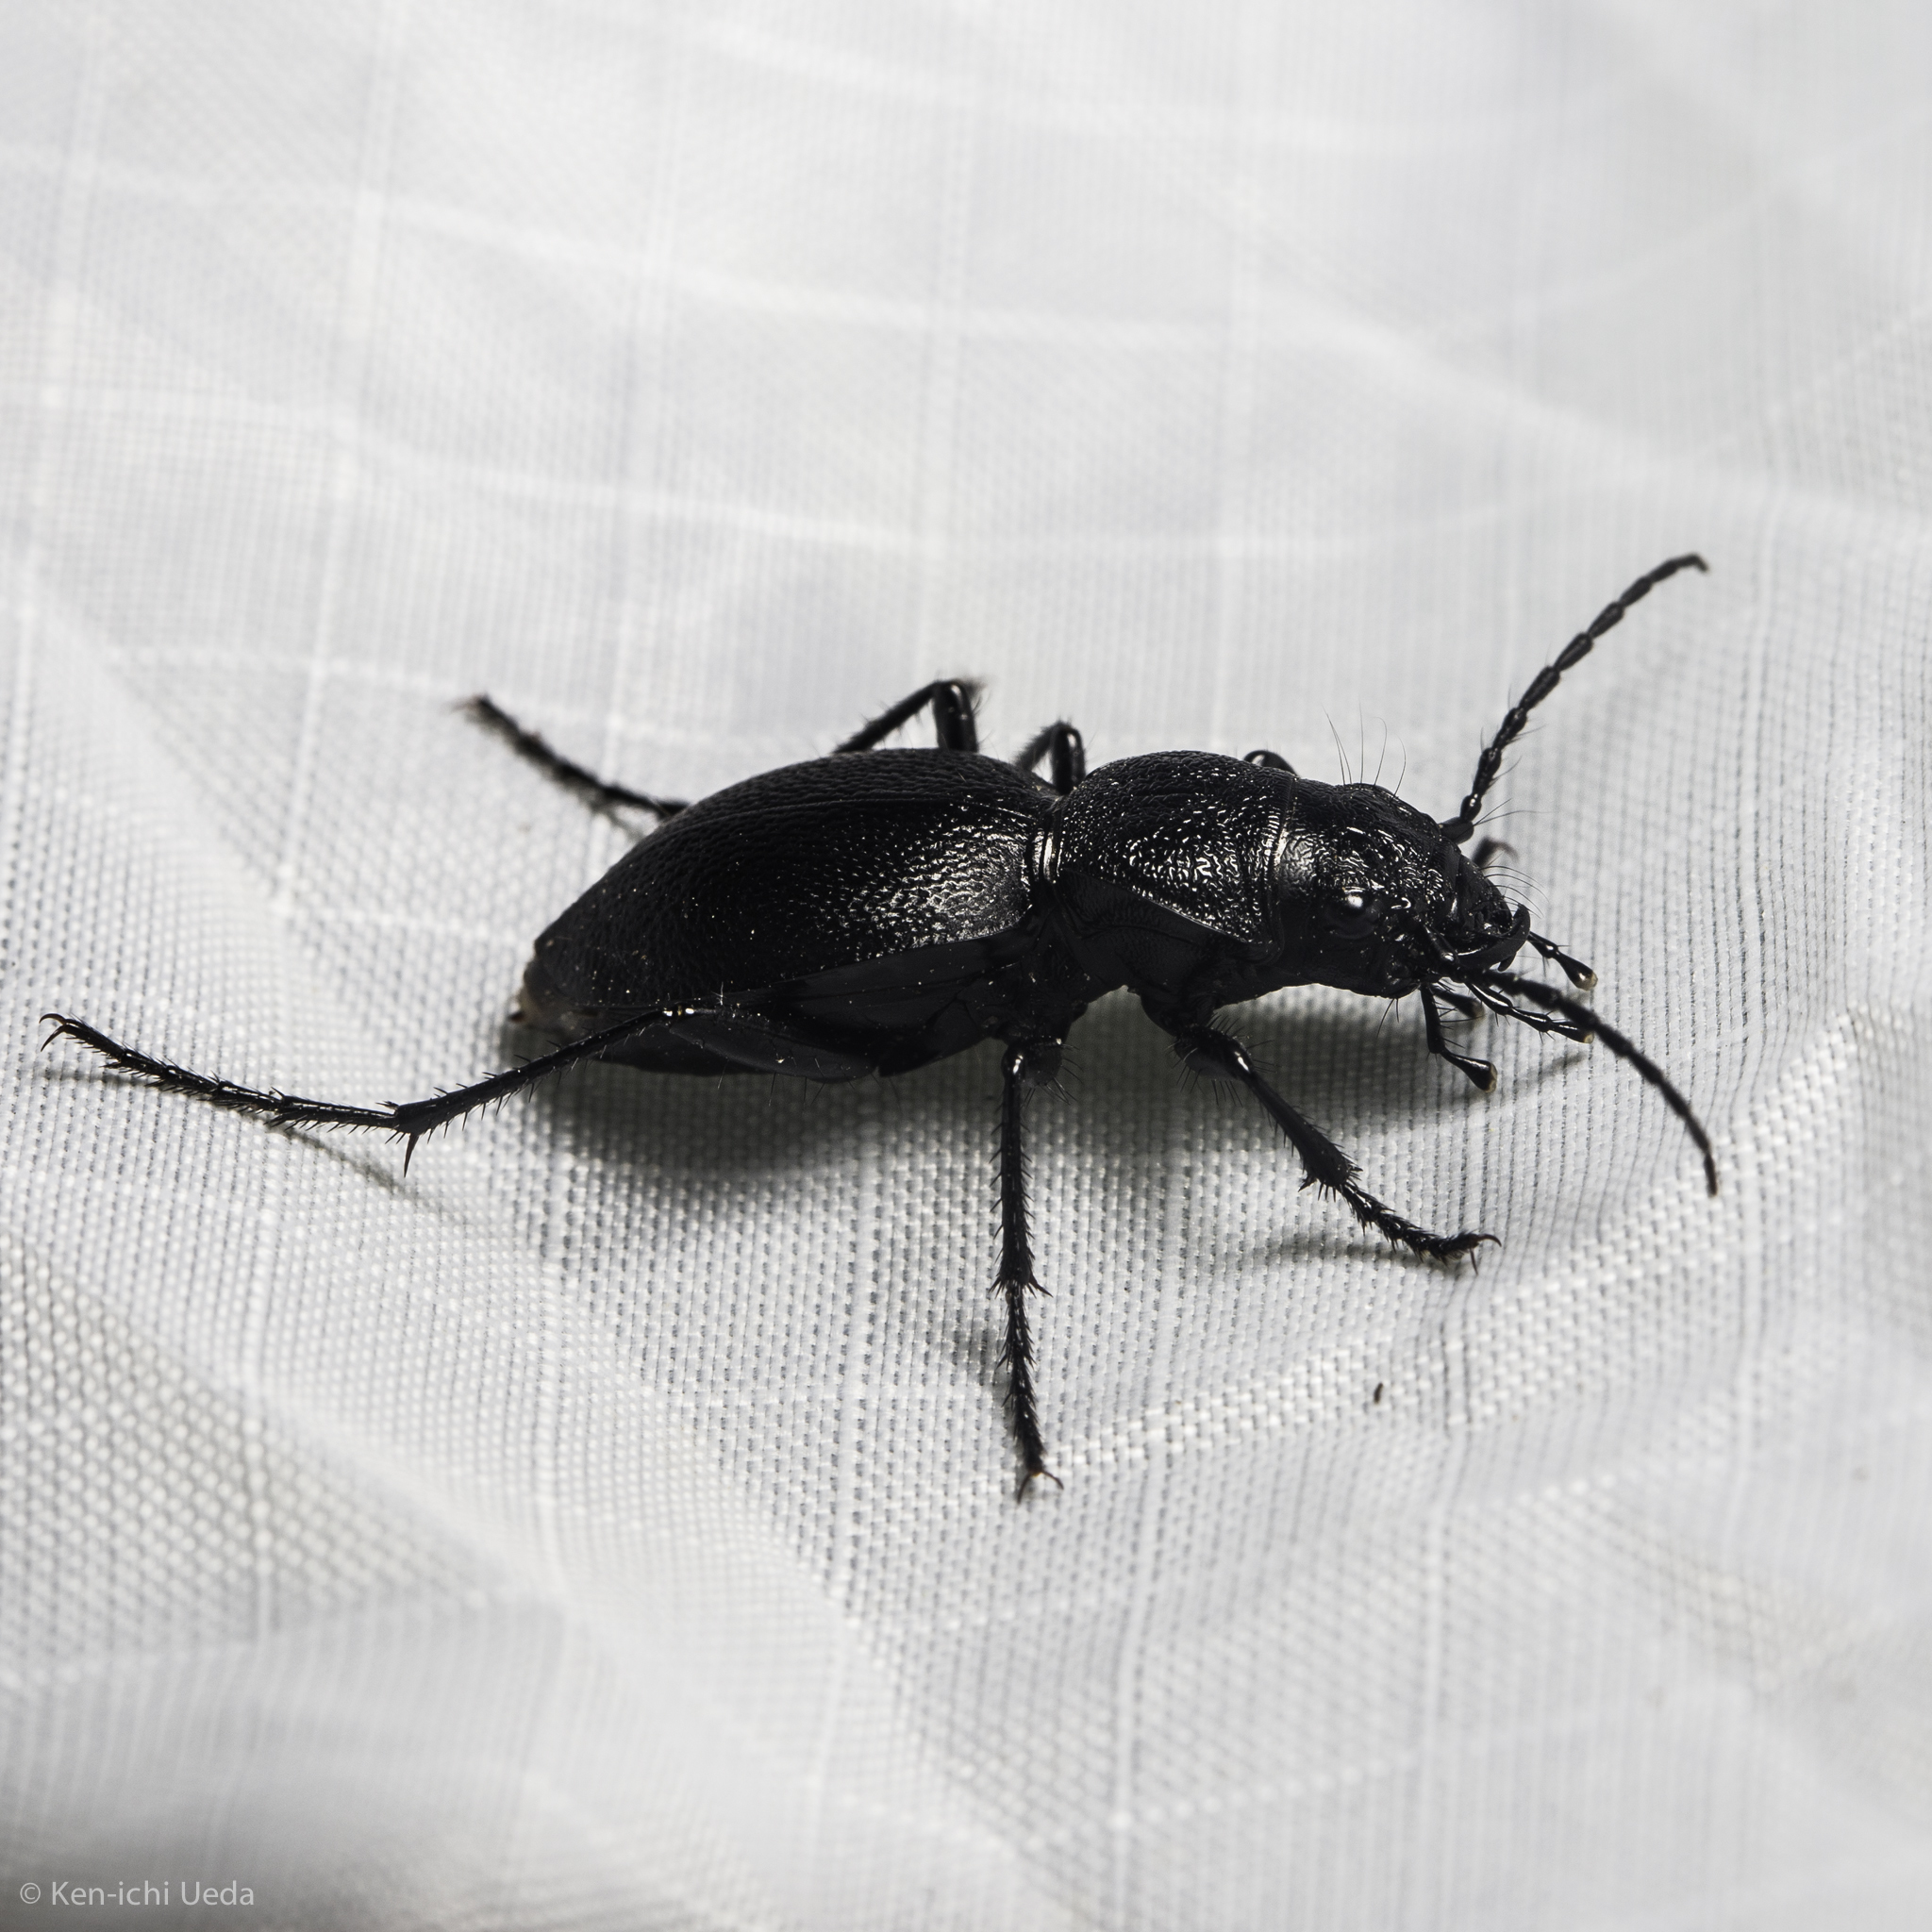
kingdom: Animalia
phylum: Arthropoda
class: Insecta
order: Coleoptera
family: Carabidae
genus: Omus
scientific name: Omus californicus
